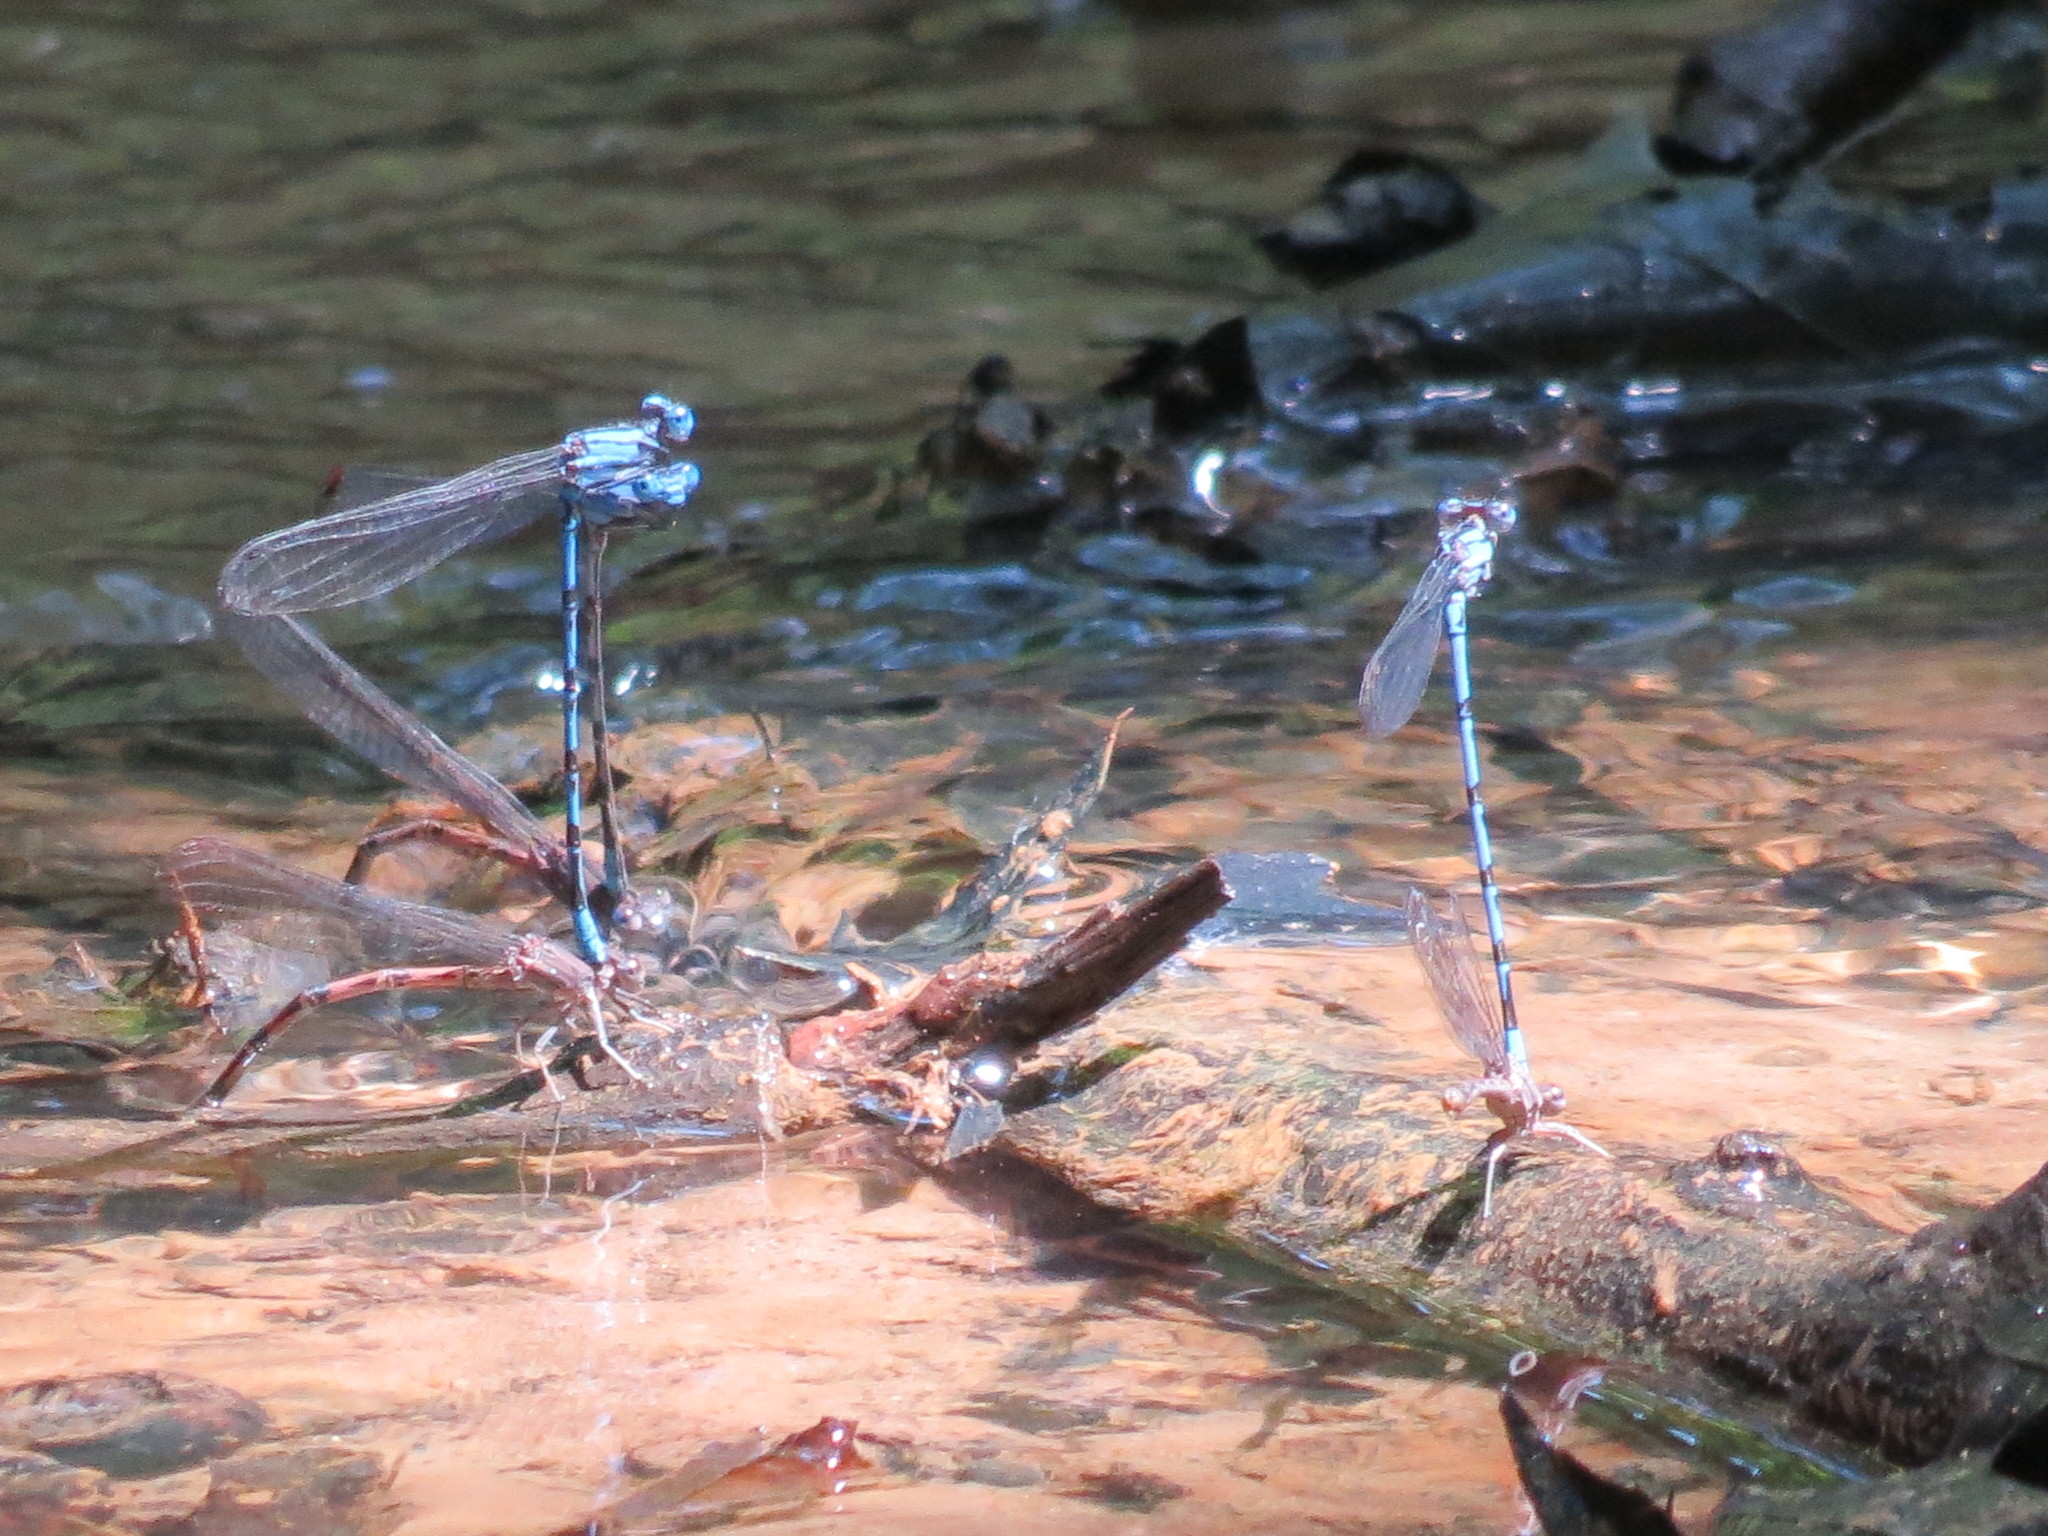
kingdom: Animalia
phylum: Arthropoda
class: Insecta
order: Odonata
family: Coenagrionidae
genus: Argia
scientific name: Argia funebris
